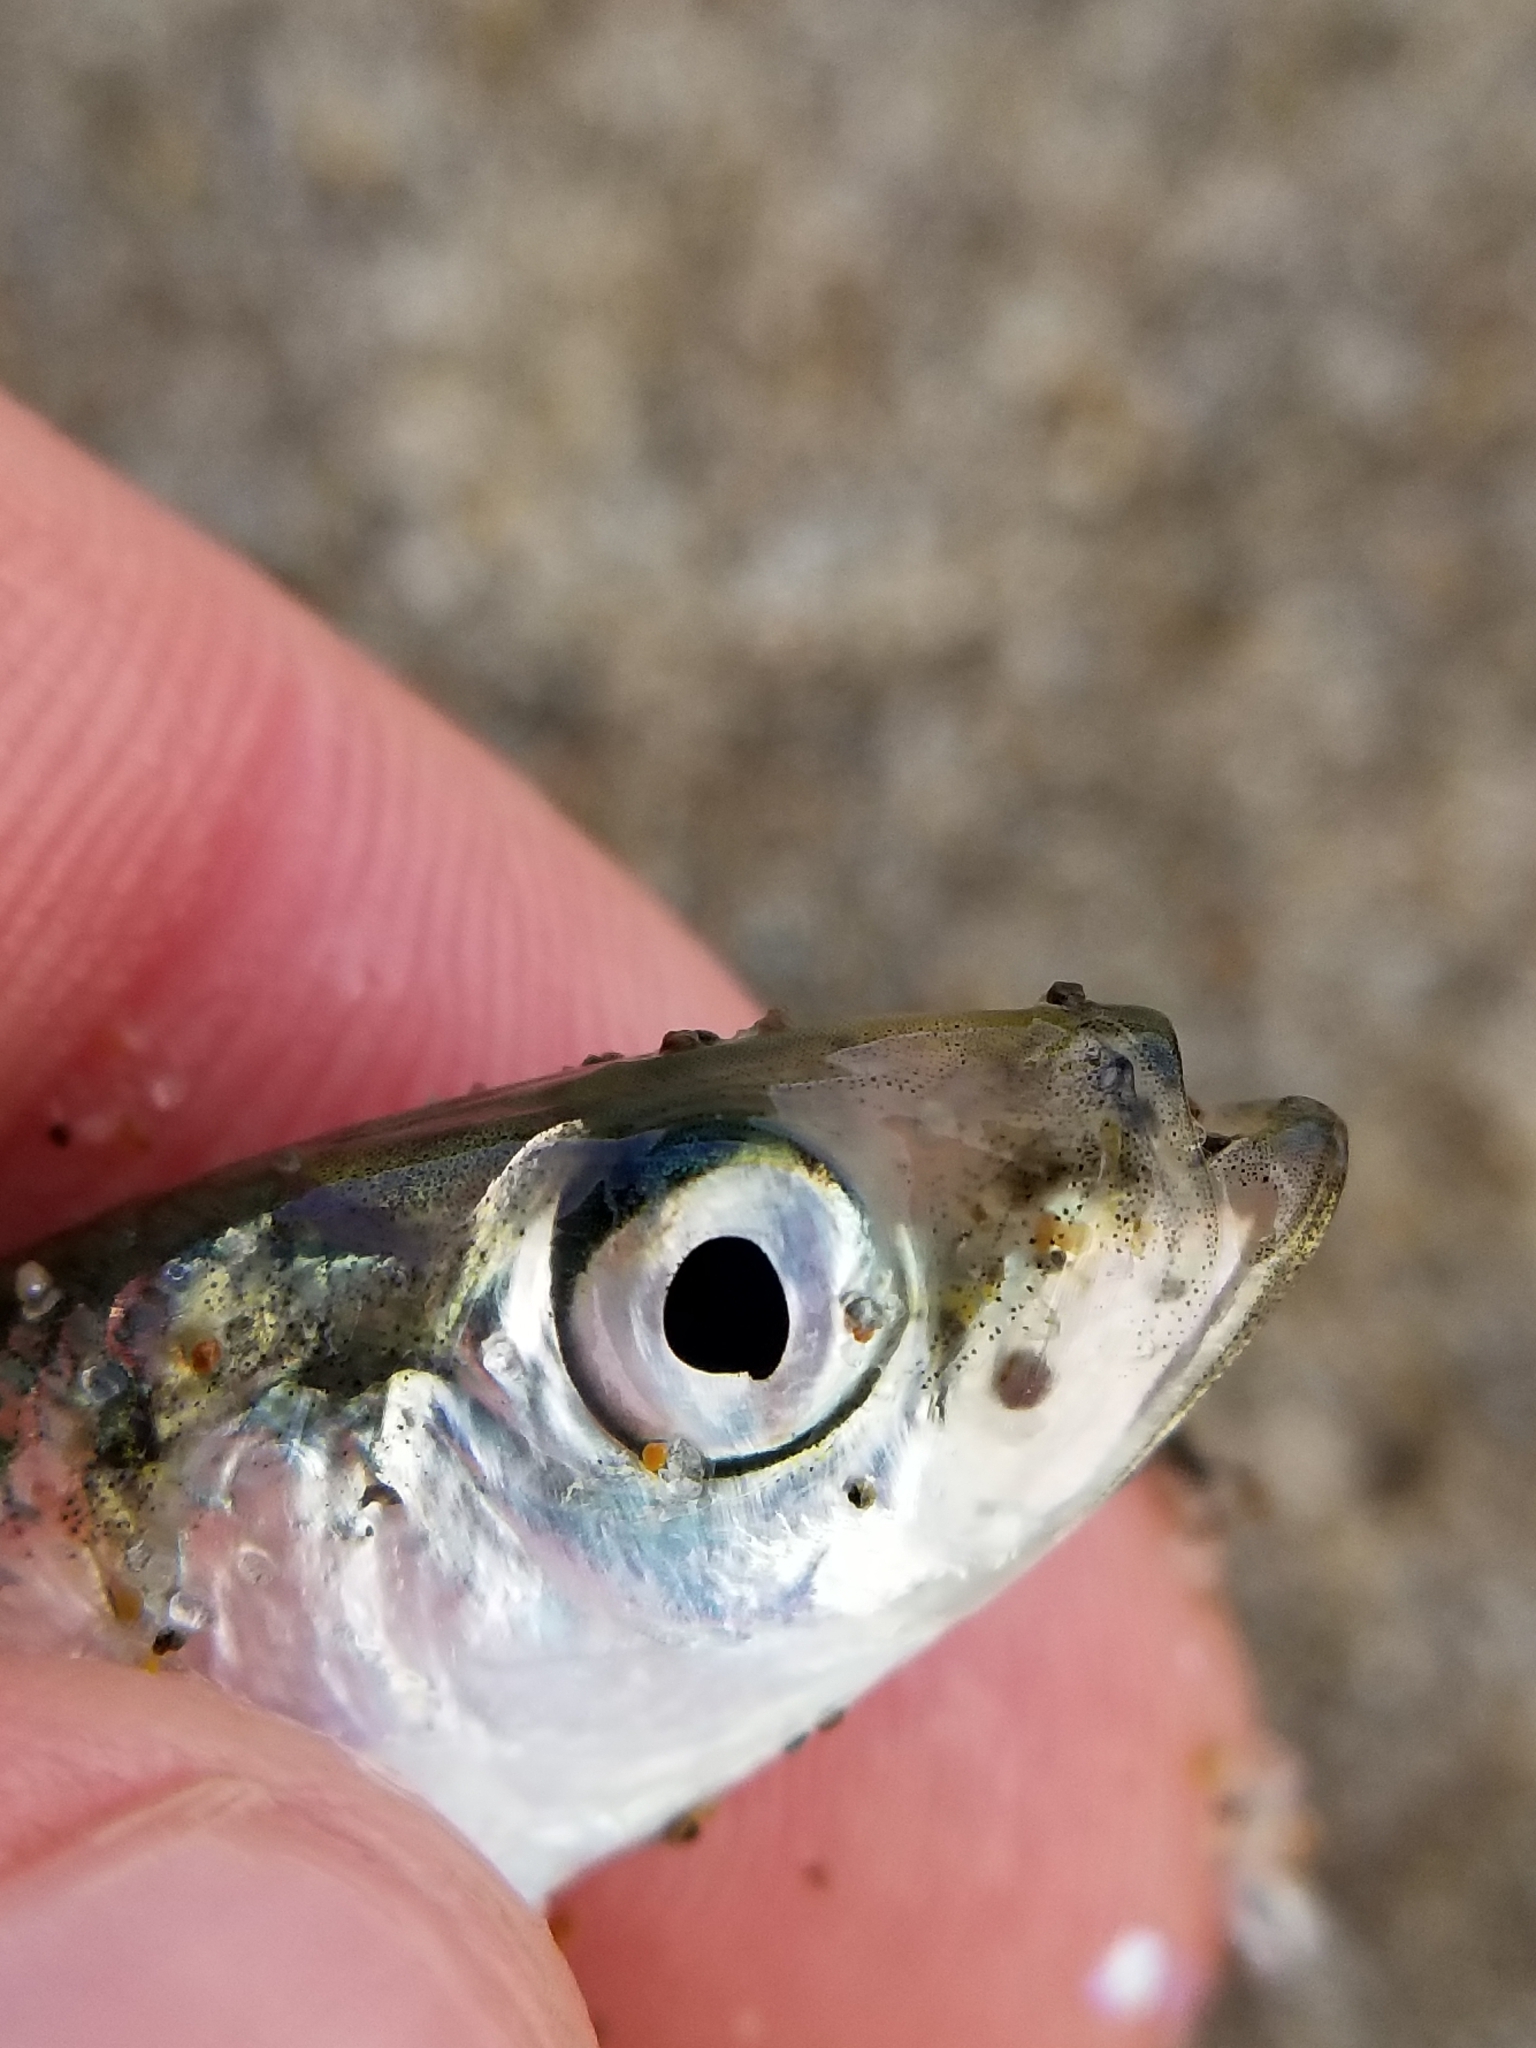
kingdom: Animalia
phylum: Chordata
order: Clupeiformes
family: Clupeidae
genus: Clupea
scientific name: Clupea pallasii
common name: Pacific herring
